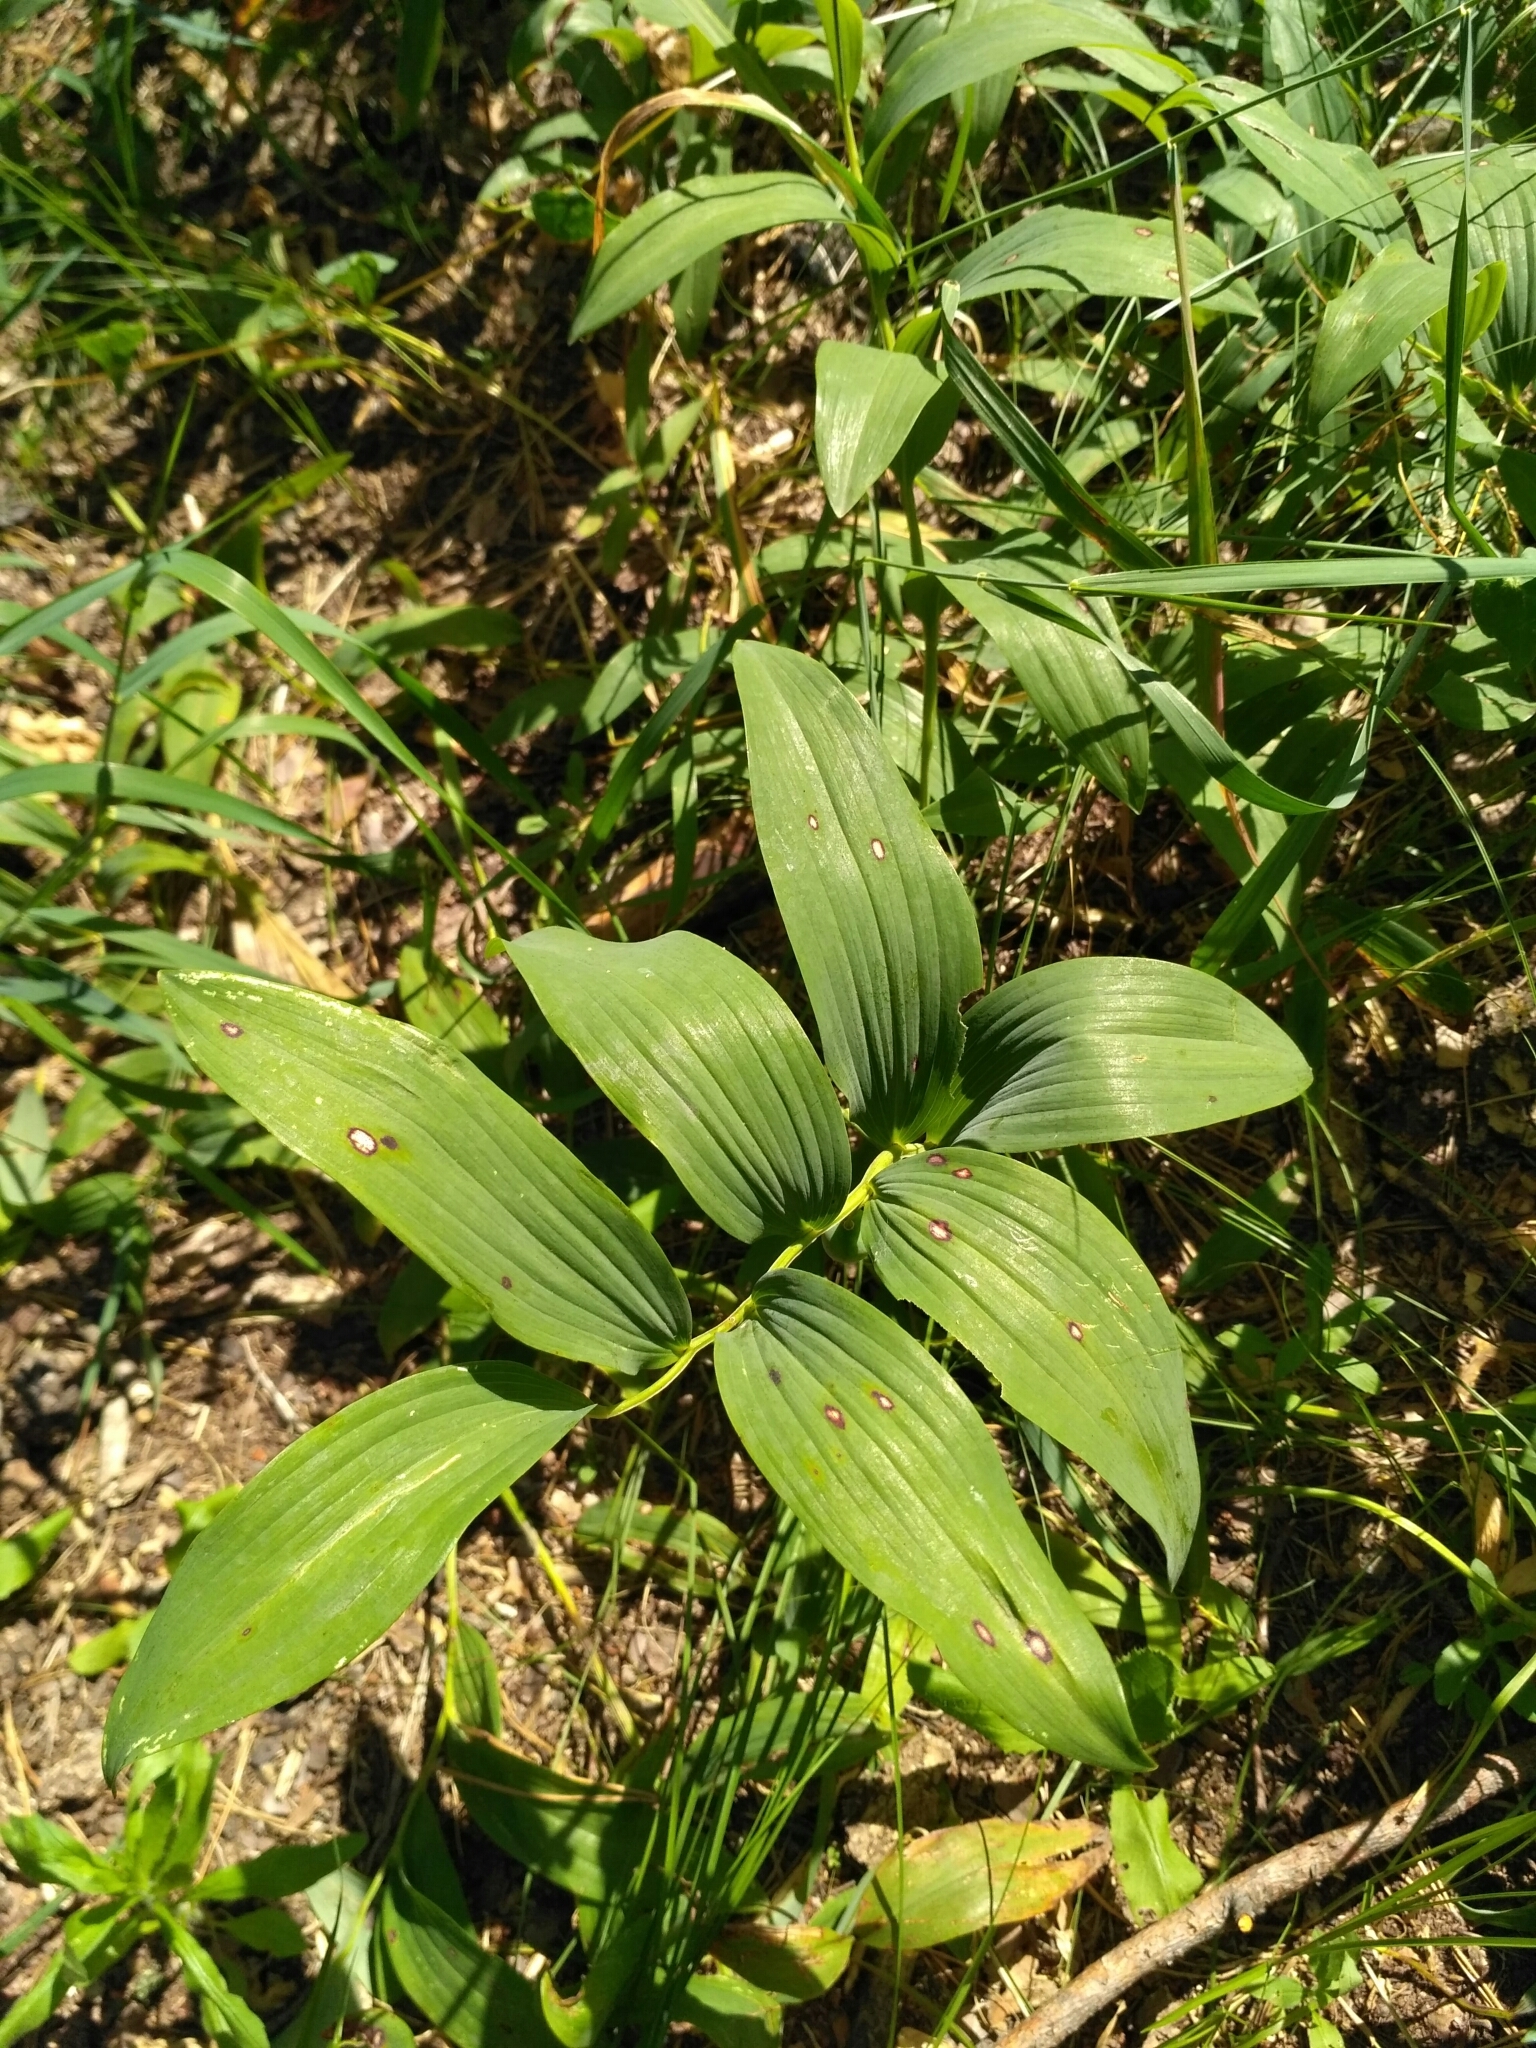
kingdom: Plantae
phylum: Tracheophyta
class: Liliopsida
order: Asparagales
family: Asparagaceae
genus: Polygonatum
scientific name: Polygonatum odoratum
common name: Angular solomon's-seal
